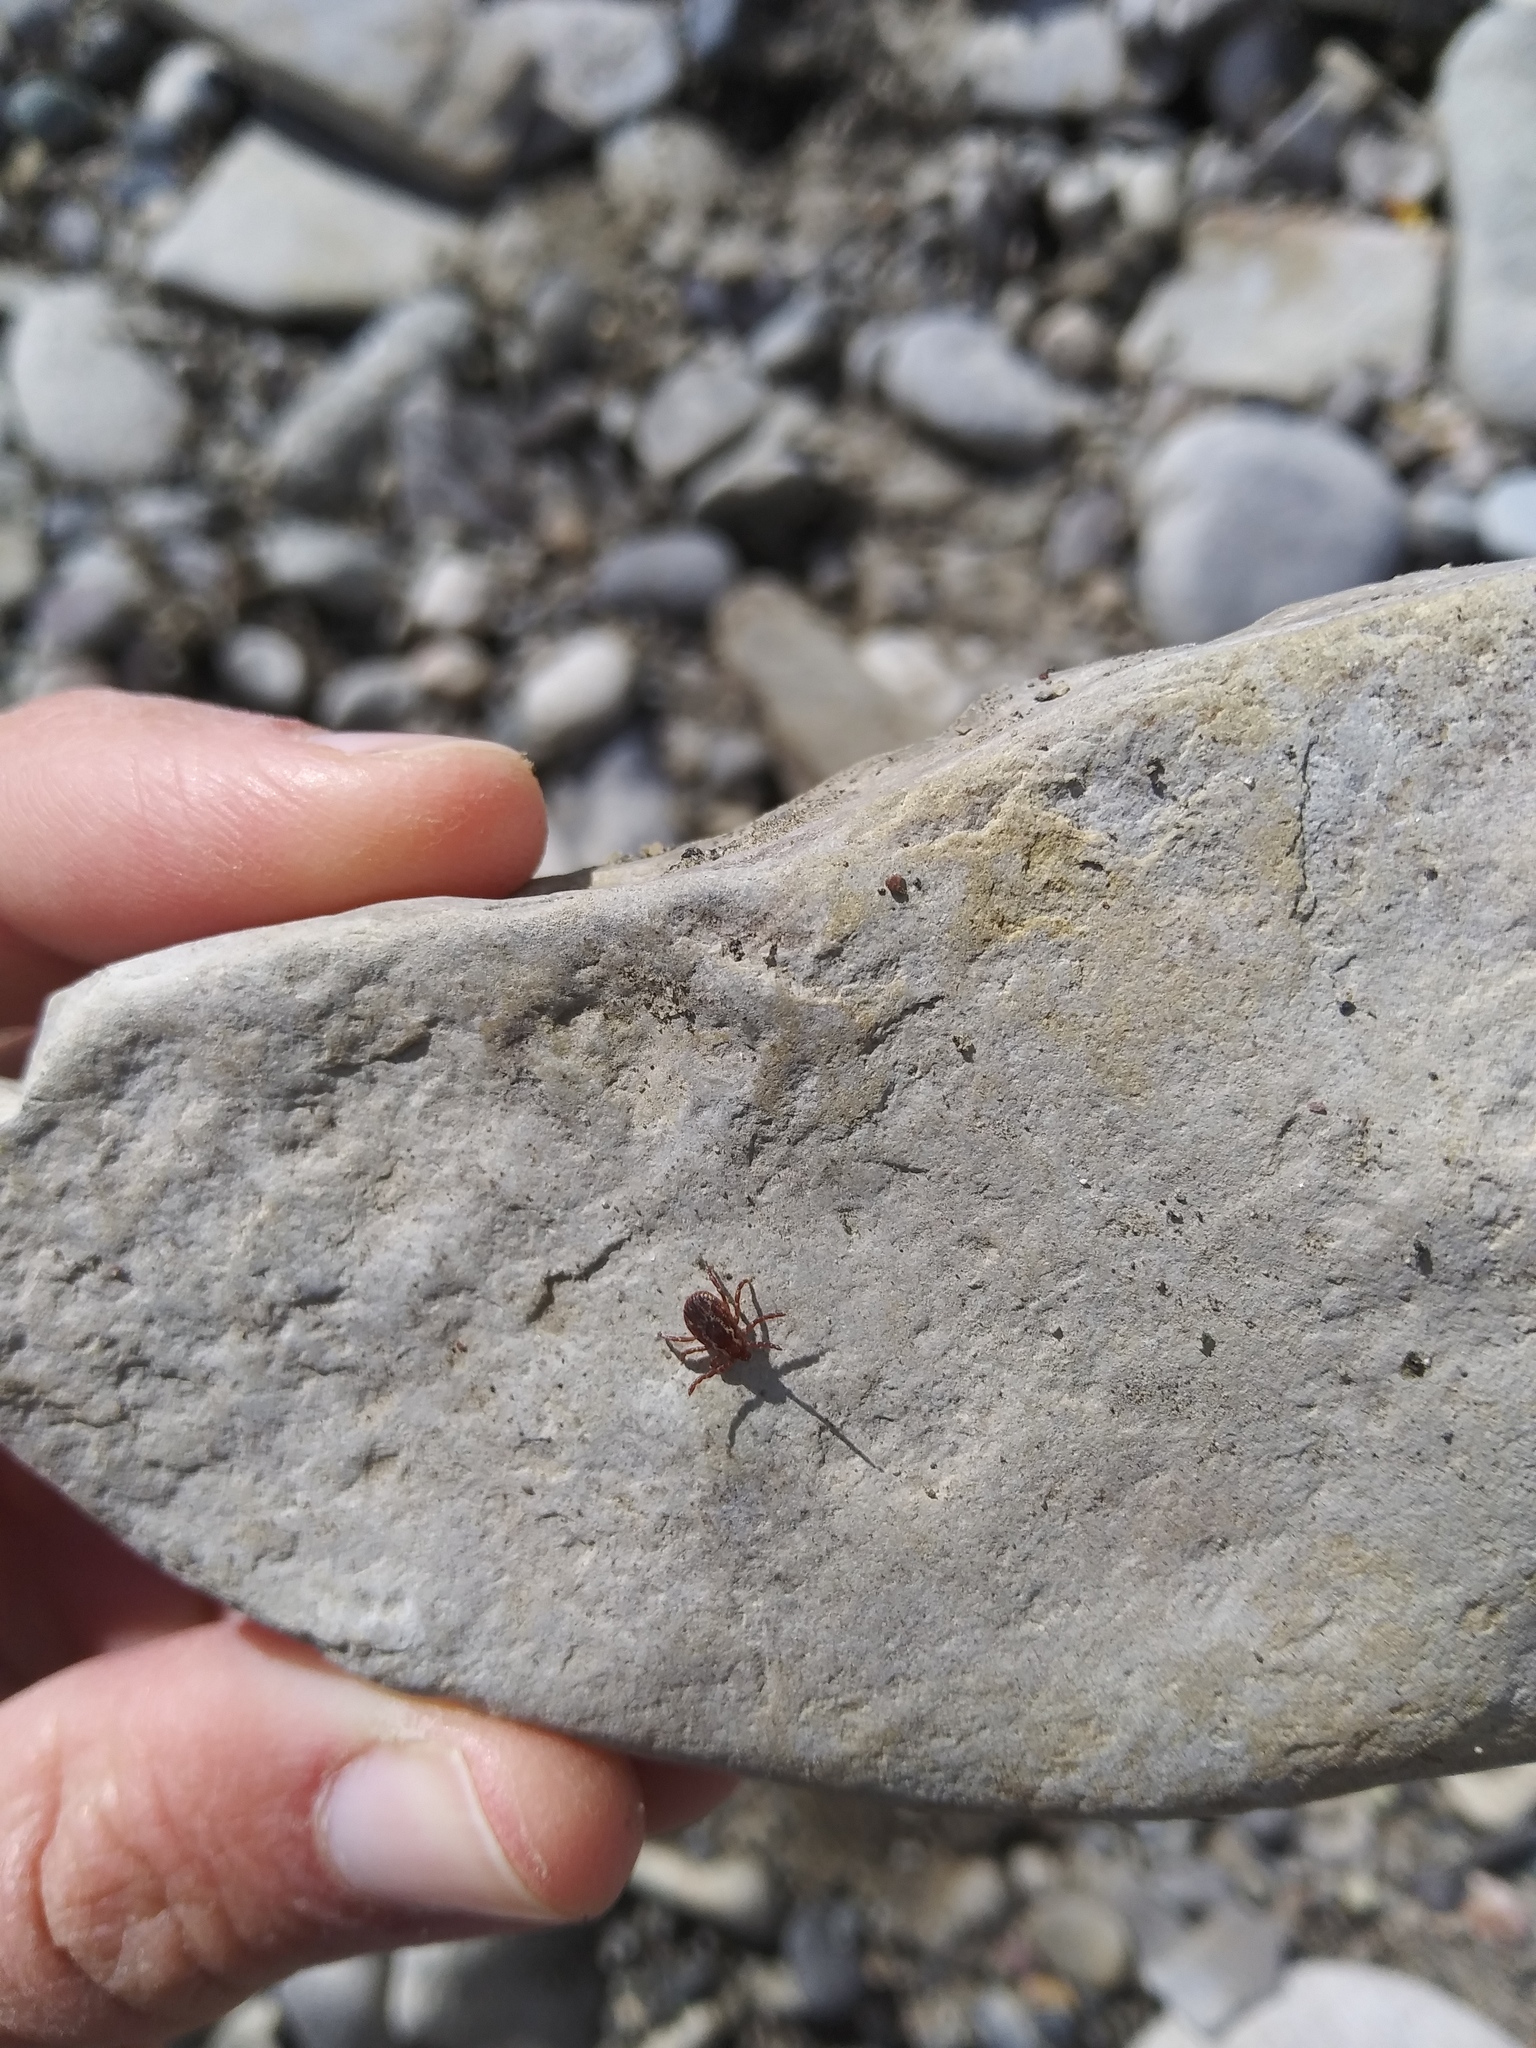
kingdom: Animalia
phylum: Arthropoda
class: Arachnida
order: Ixodida
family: Ixodidae
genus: Dermacentor
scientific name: Dermacentor variabilis
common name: American dog tick
